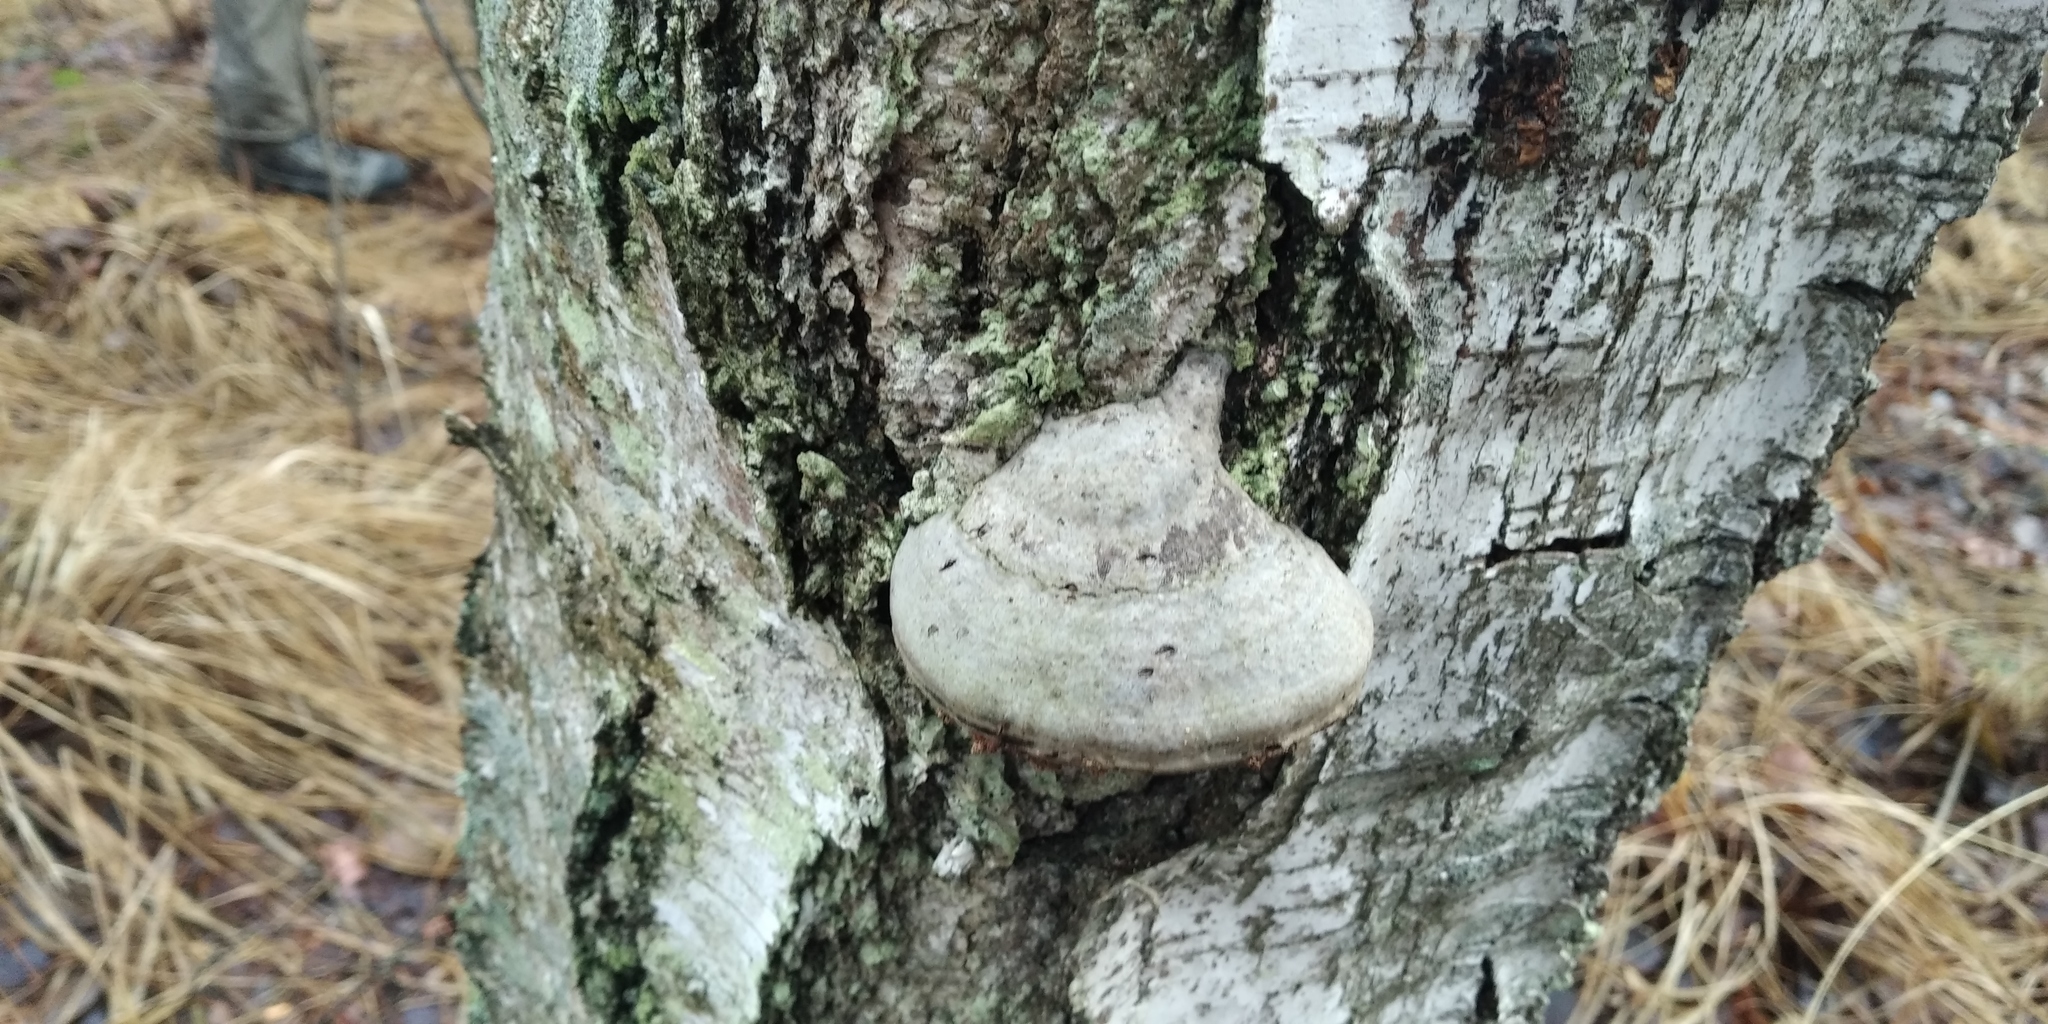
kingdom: Fungi
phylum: Basidiomycota
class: Agaricomycetes
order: Polyporales
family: Polyporaceae
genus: Fomes
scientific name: Fomes fomentarius
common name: Hoof fungus
